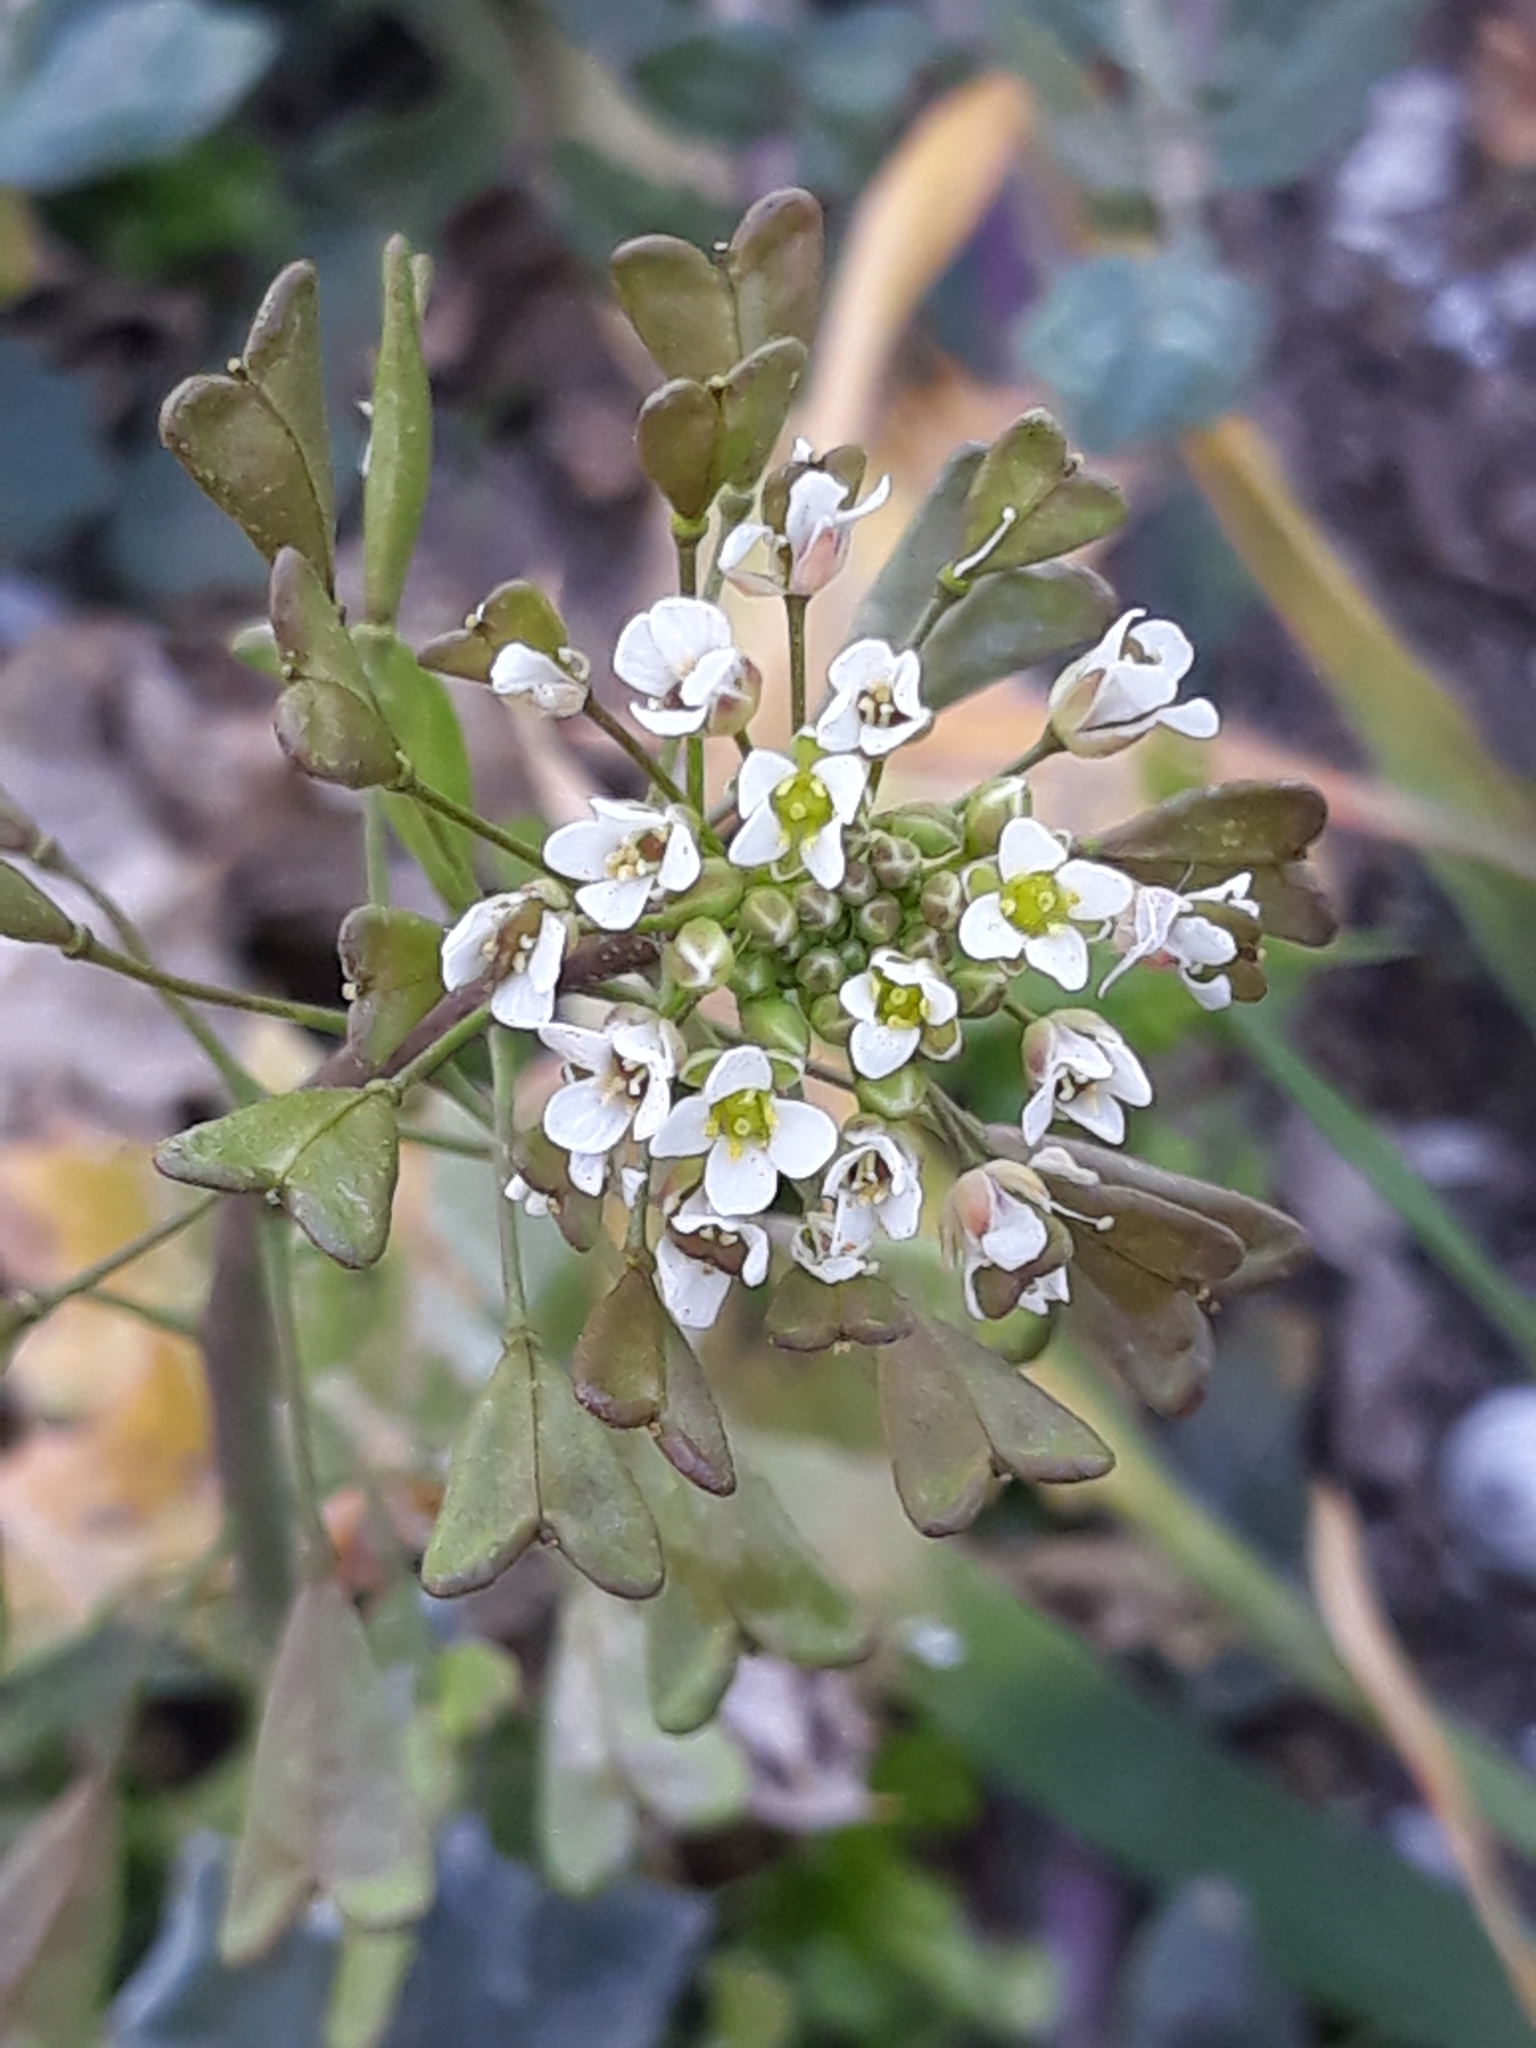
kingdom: Plantae
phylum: Tracheophyta
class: Magnoliopsida
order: Brassicales
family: Brassicaceae
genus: Capsella
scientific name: Capsella bursa-pastoris
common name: Shepherd's purse
